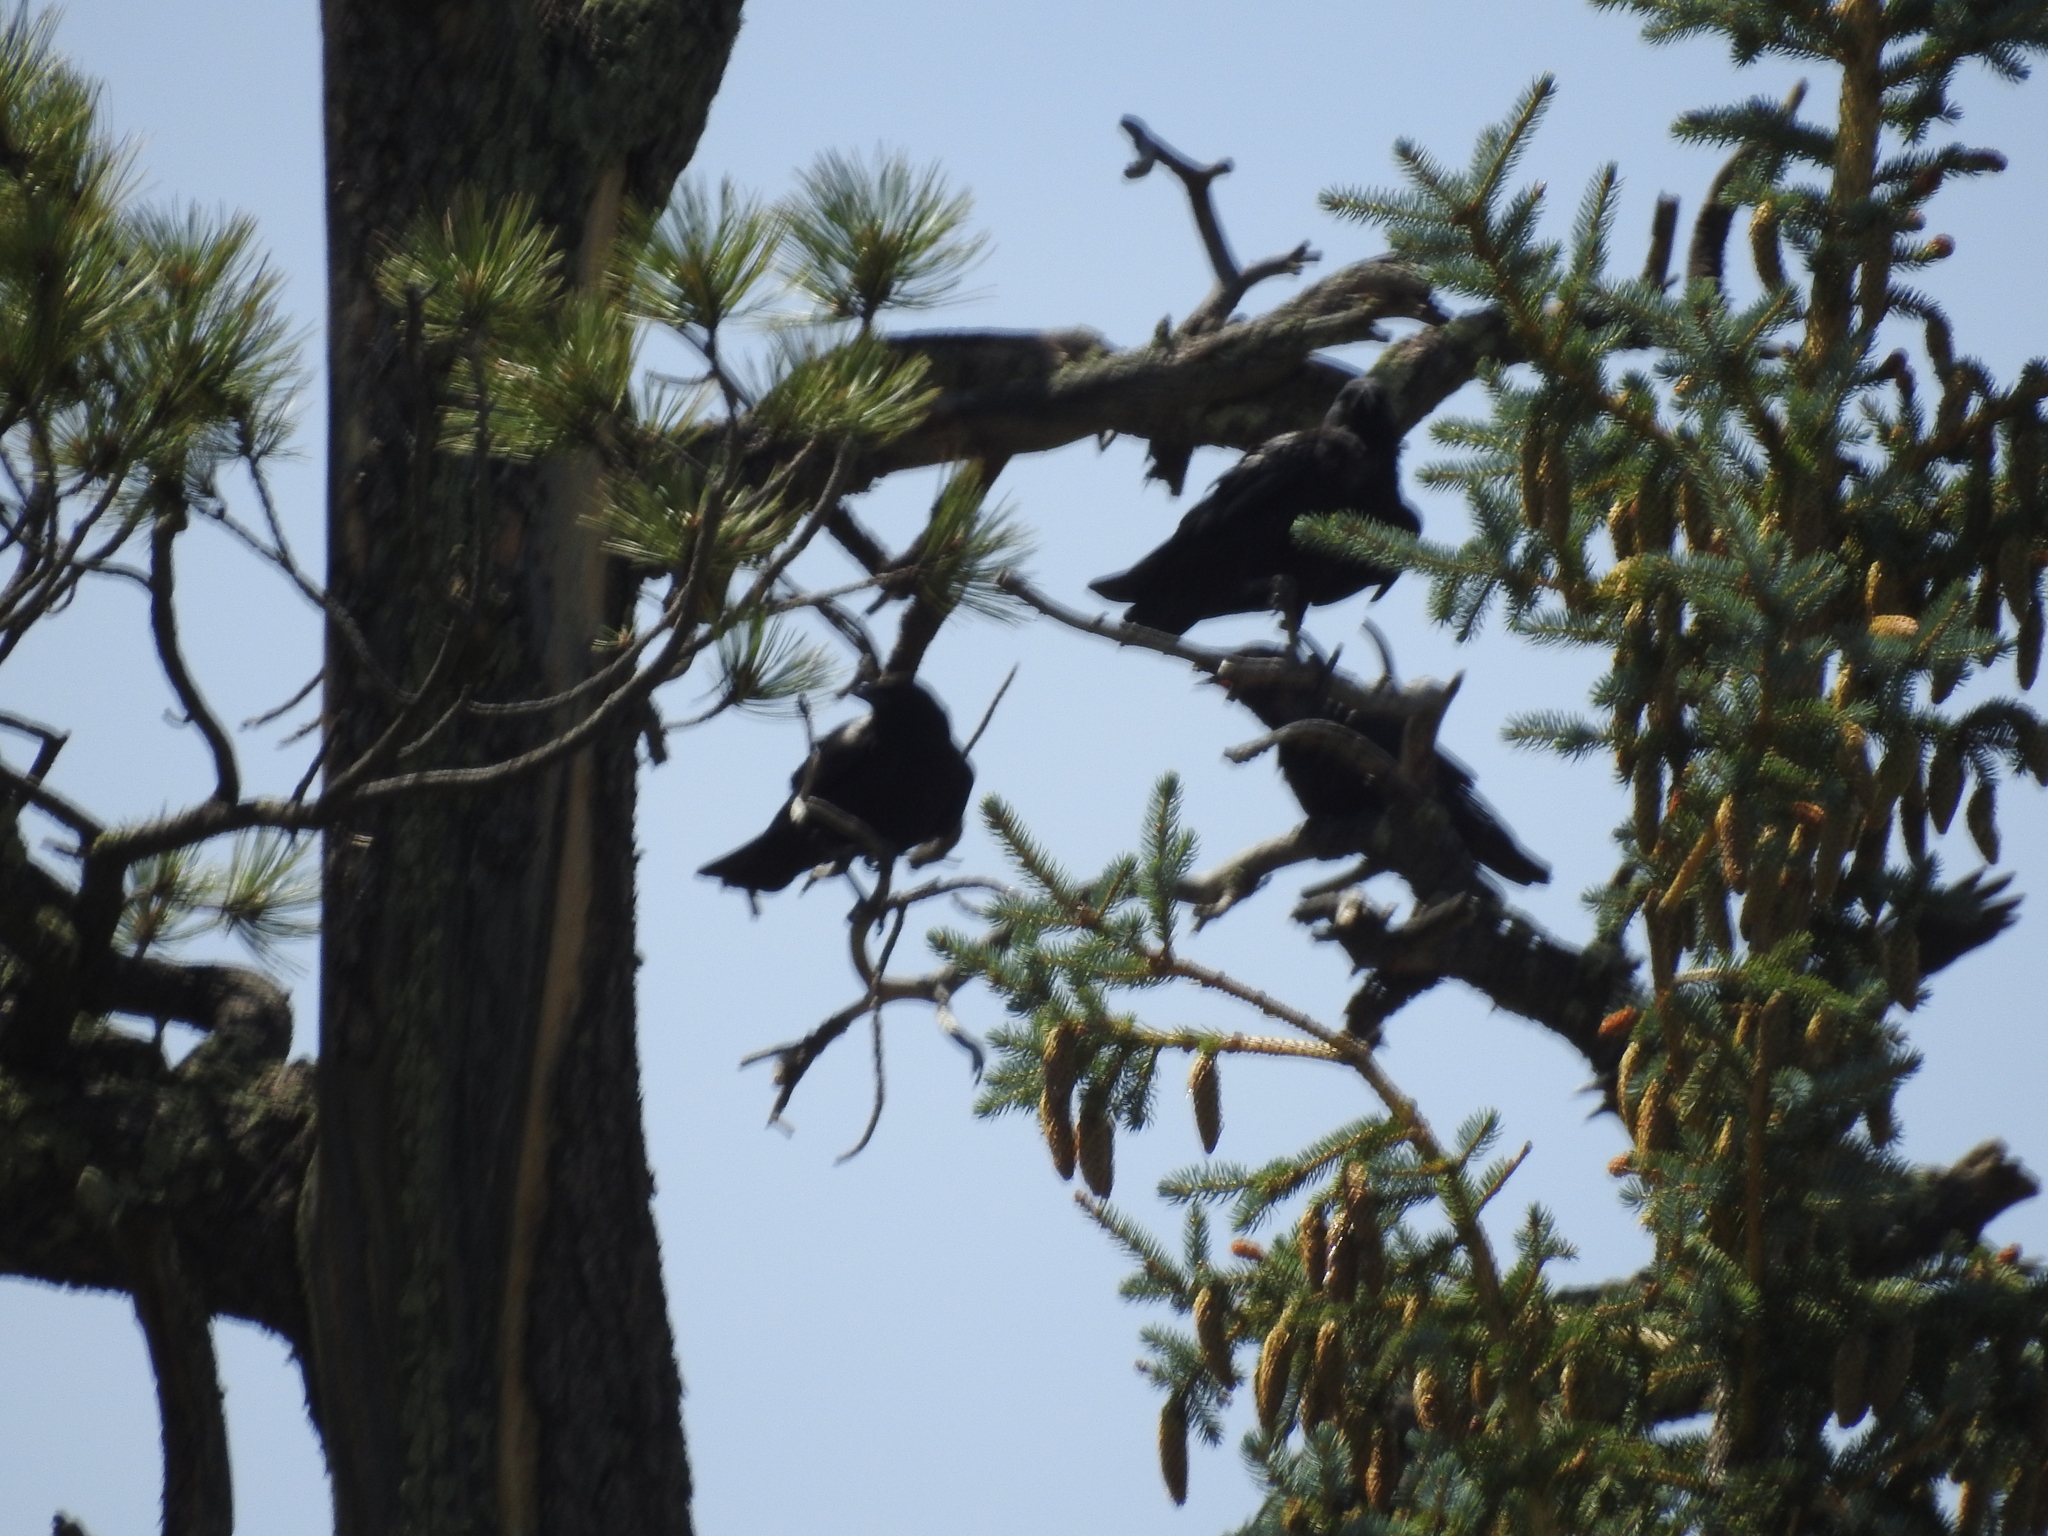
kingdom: Animalia
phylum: Chordata
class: Aves
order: Passeriformes
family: Corvidae
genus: Corvus
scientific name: Corvus brachyrhynchos
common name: American crow
